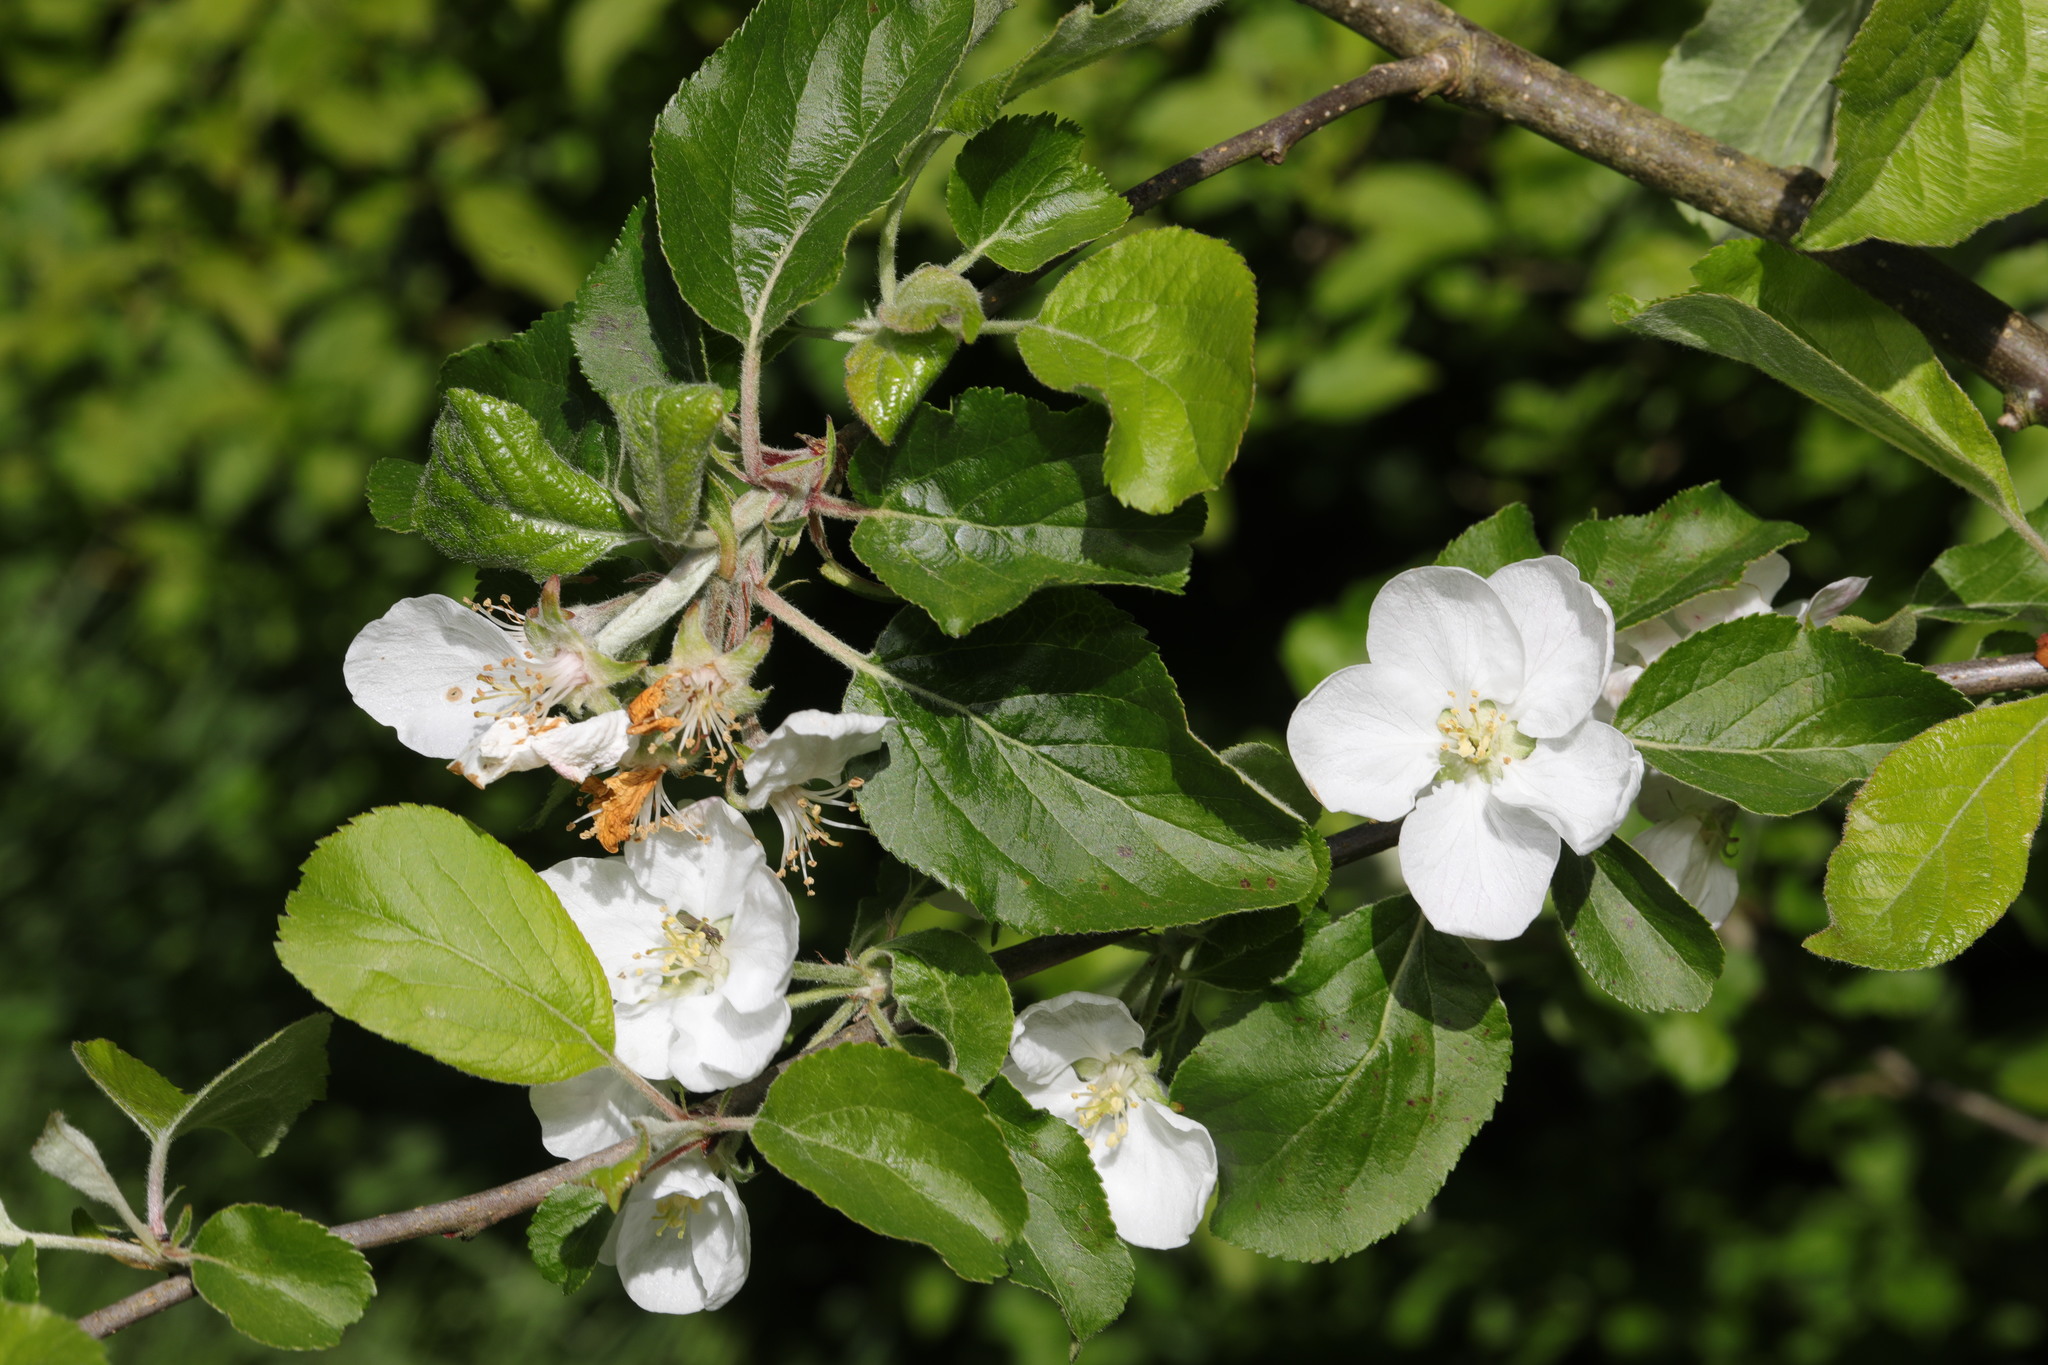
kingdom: Plantae
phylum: Tracheophyta
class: Magnoliopsida
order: Rosales
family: Rosaceae
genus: Malus
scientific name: Malus domestica
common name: Apple
